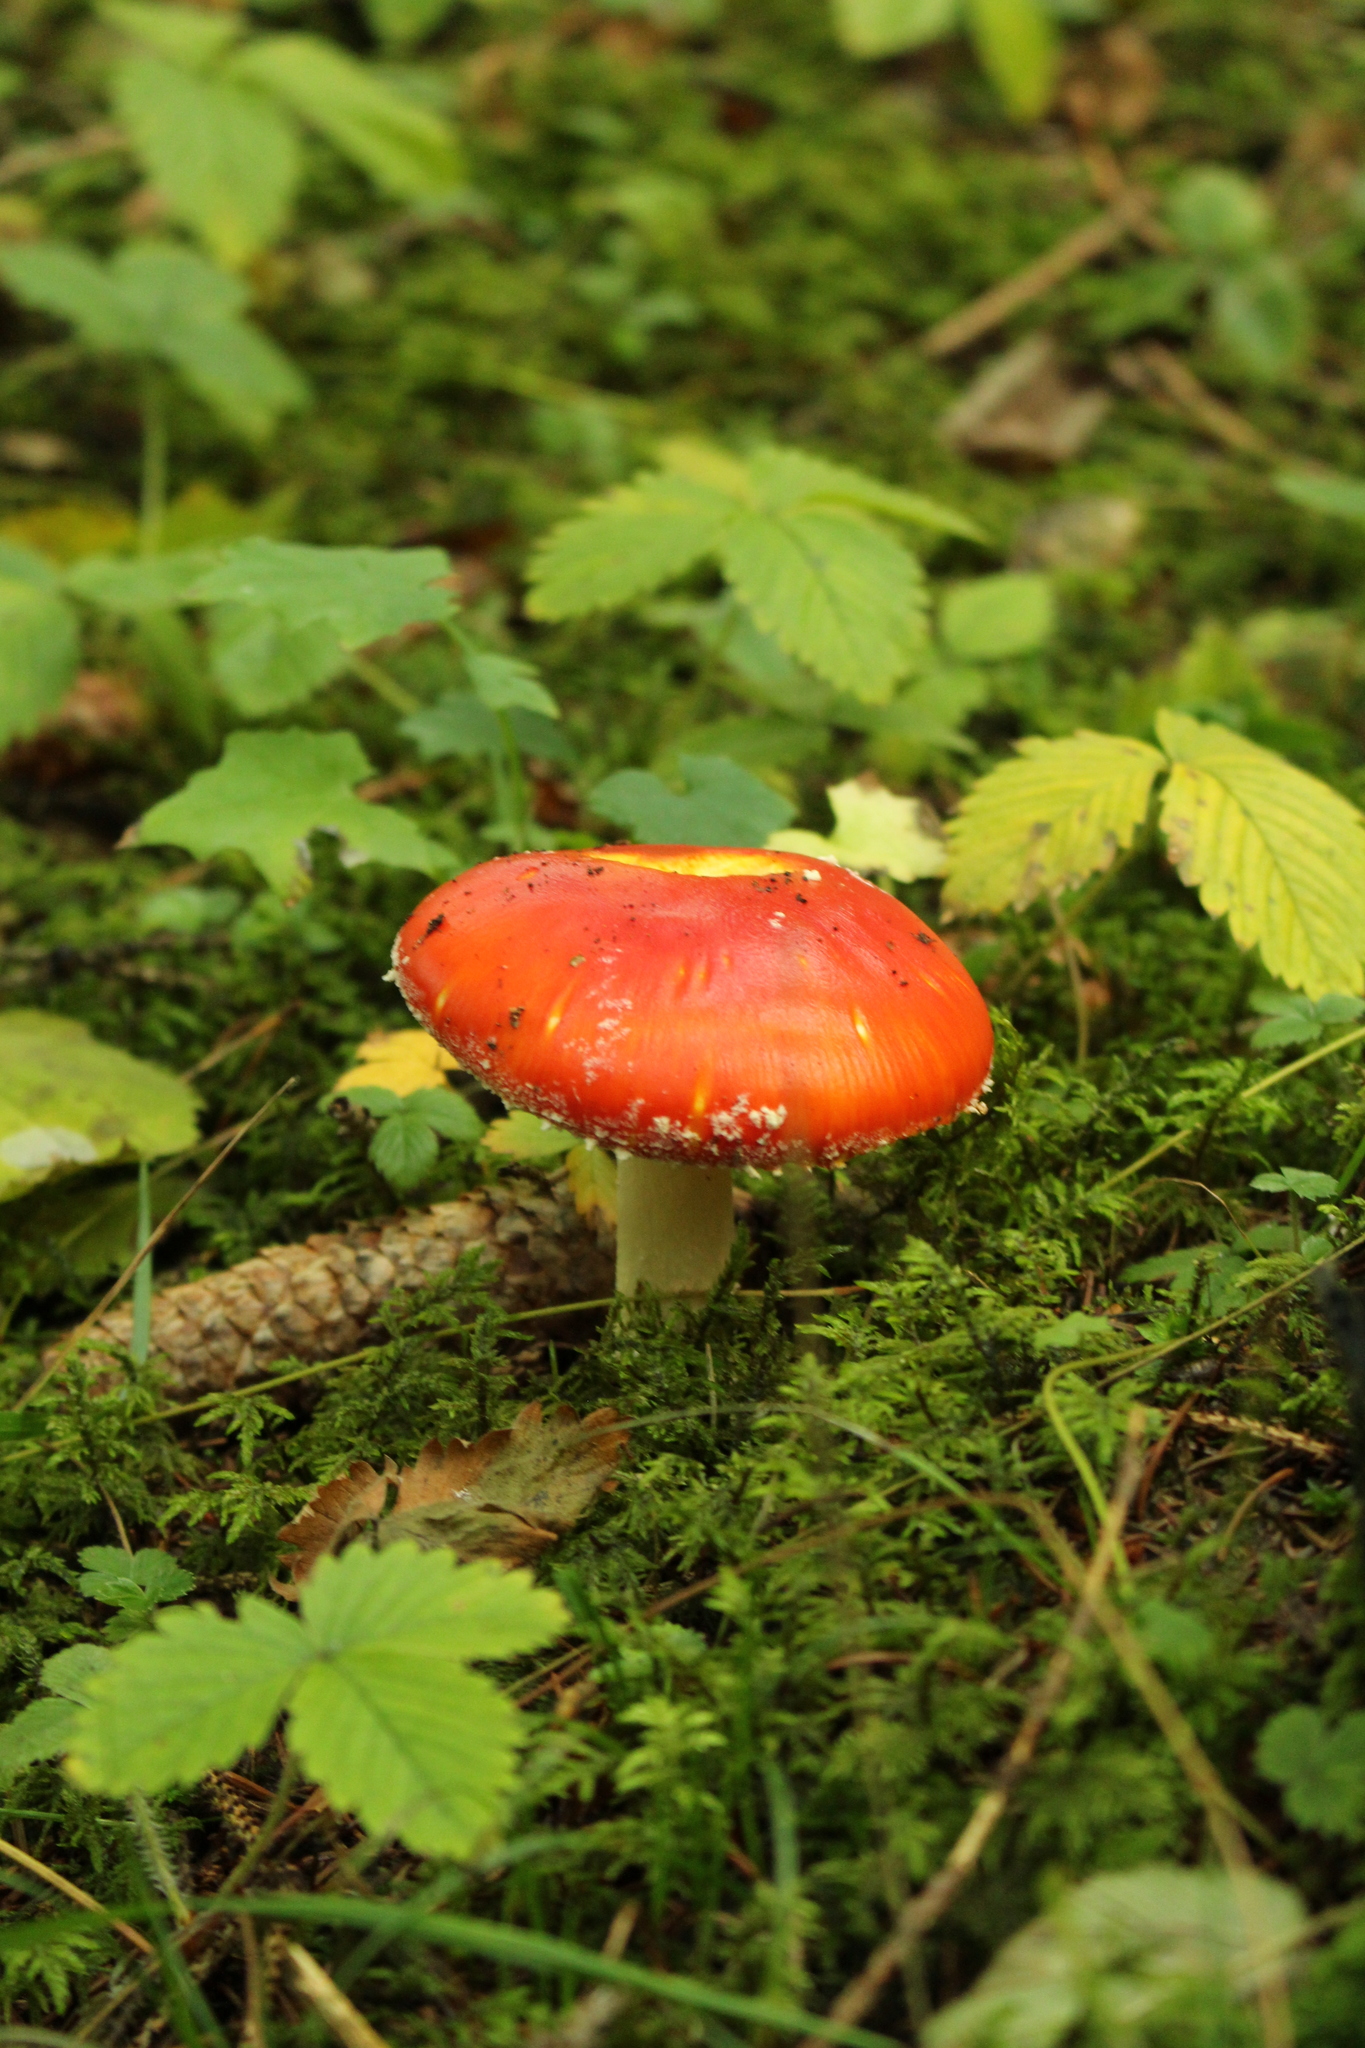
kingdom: Fungi
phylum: Basidiomycota
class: Agaricomycetes
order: Agaricales
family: Amanitaceae
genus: Amanita
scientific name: Amanita muscaria
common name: Fly agaric
